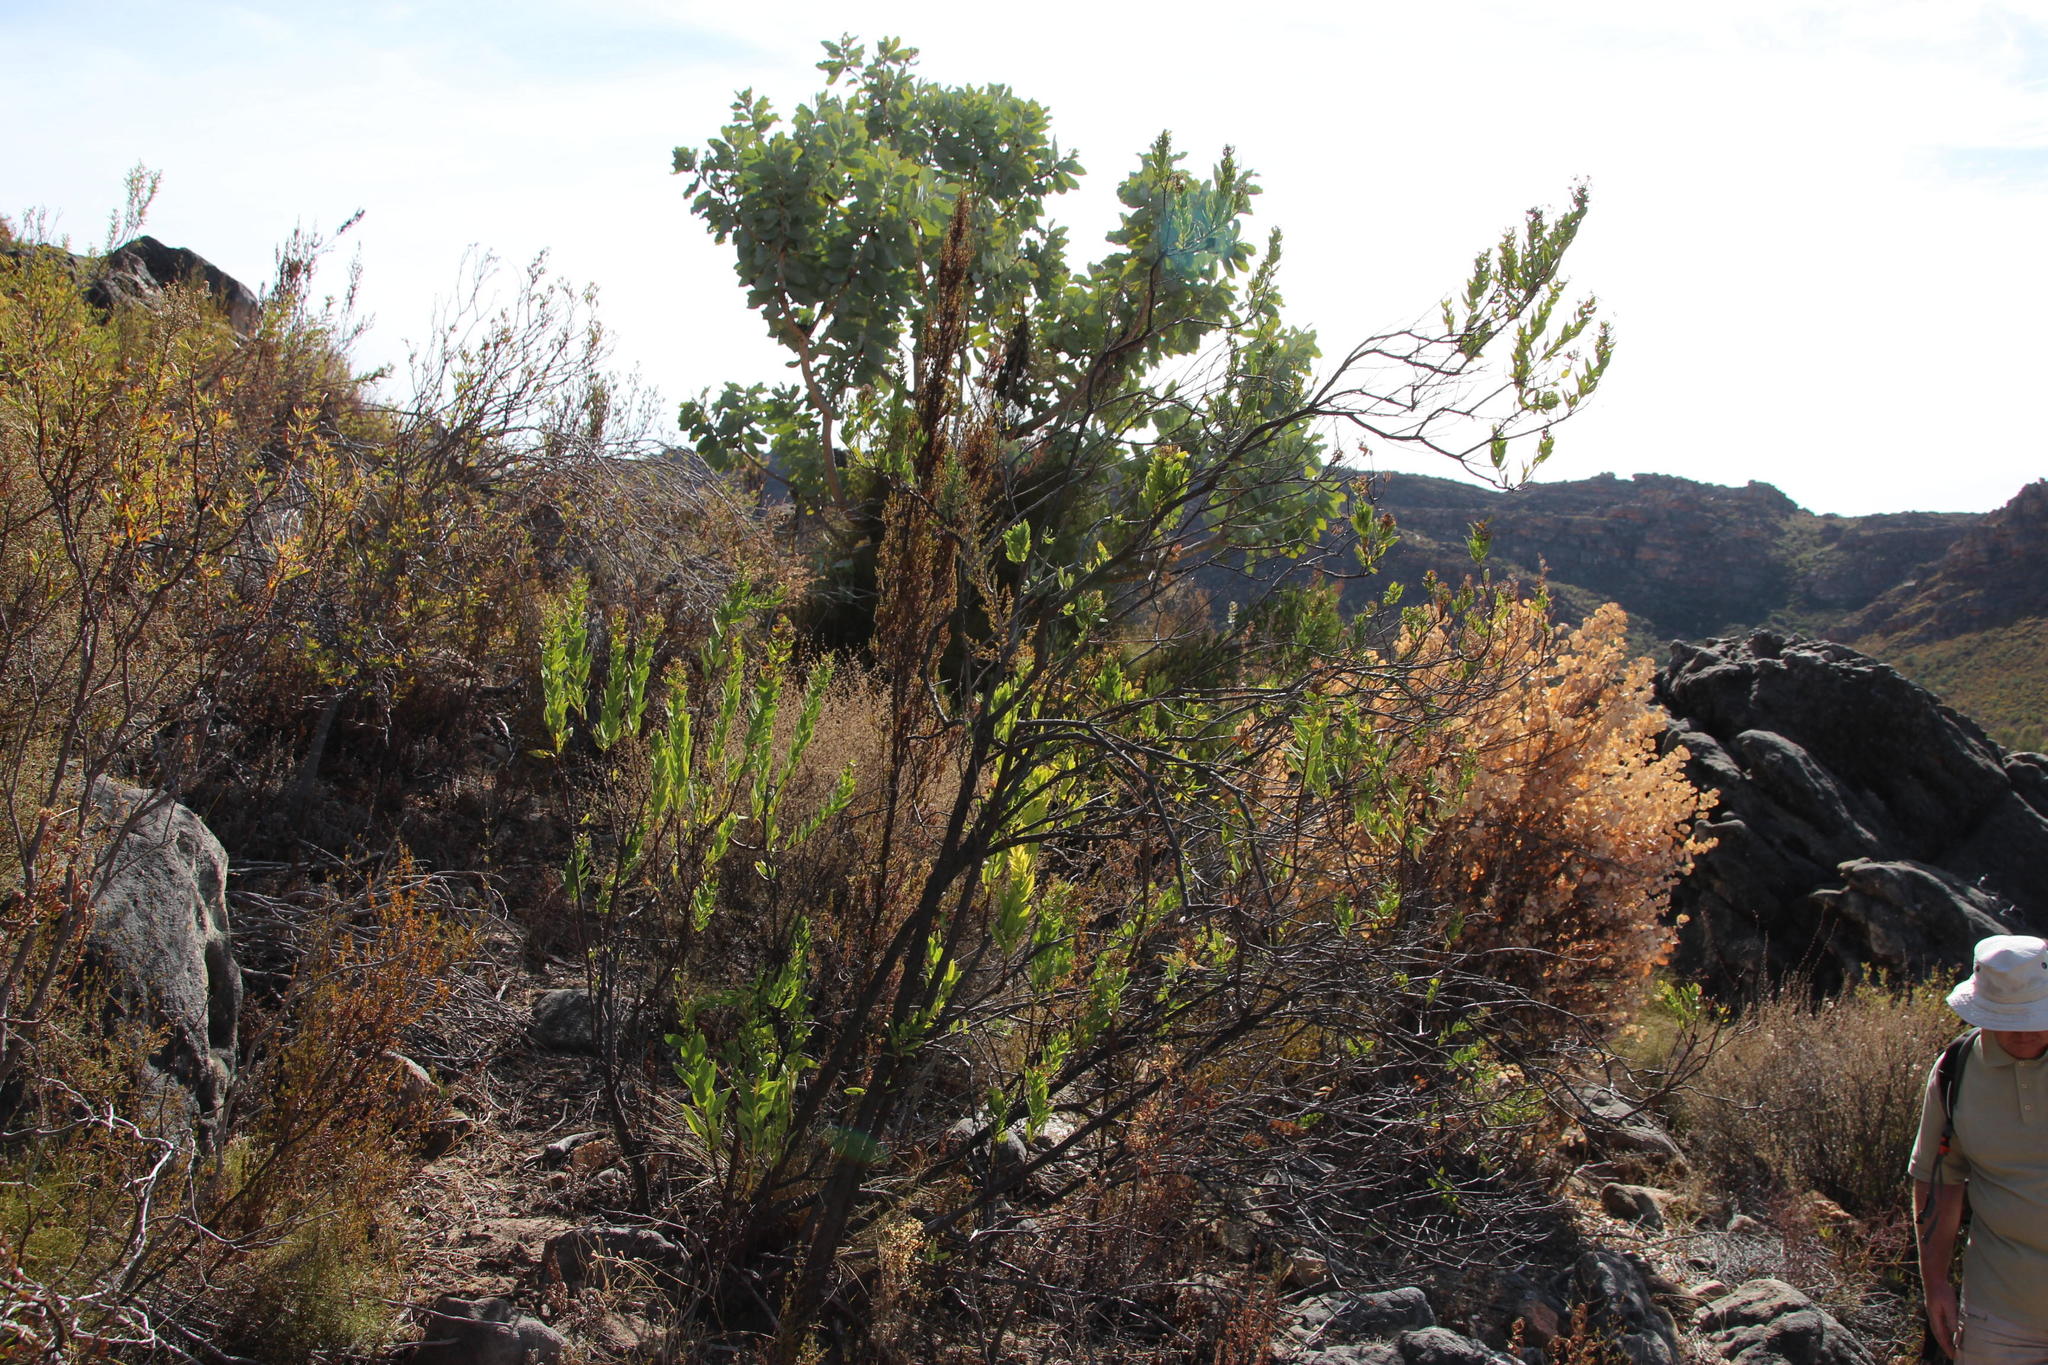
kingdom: Plantae
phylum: Tracheophyta
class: Magnoliopsida
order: Boraginales
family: Boraginaceae
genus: Lobostemon
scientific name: Lobostemon glaucophyllus
